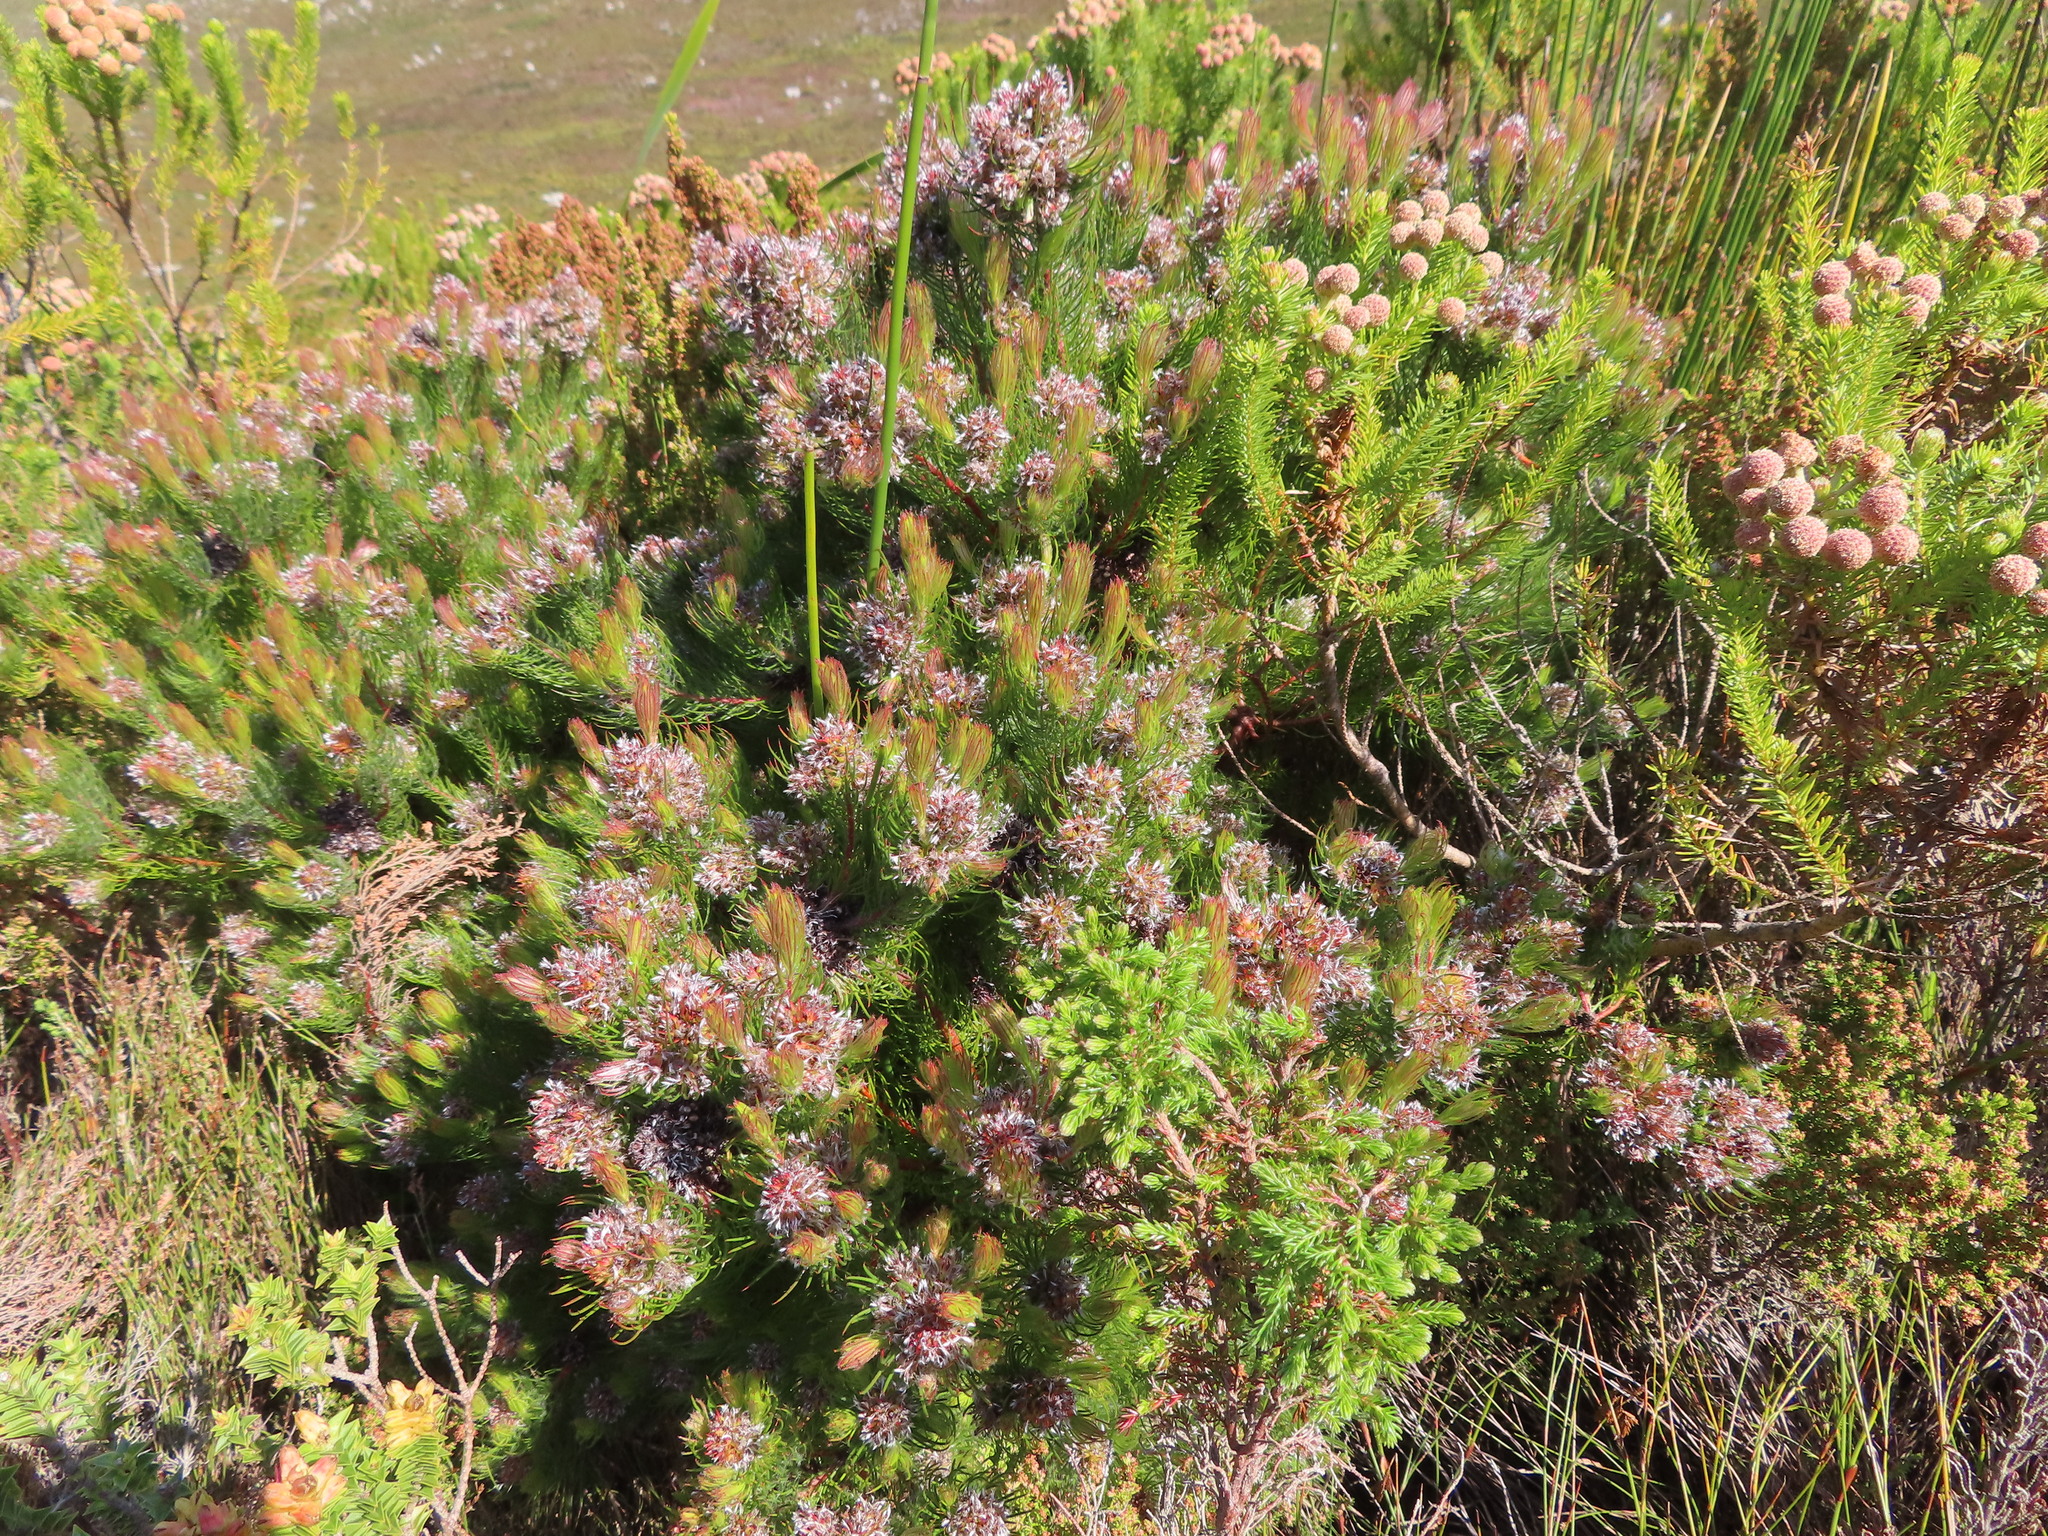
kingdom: Plantae
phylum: Tracheophyta
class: Magnoliopsida
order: Proteales
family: Proteaceae
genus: Spatalla
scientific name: Spatalla setacea
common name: Needle-leaf spoon
